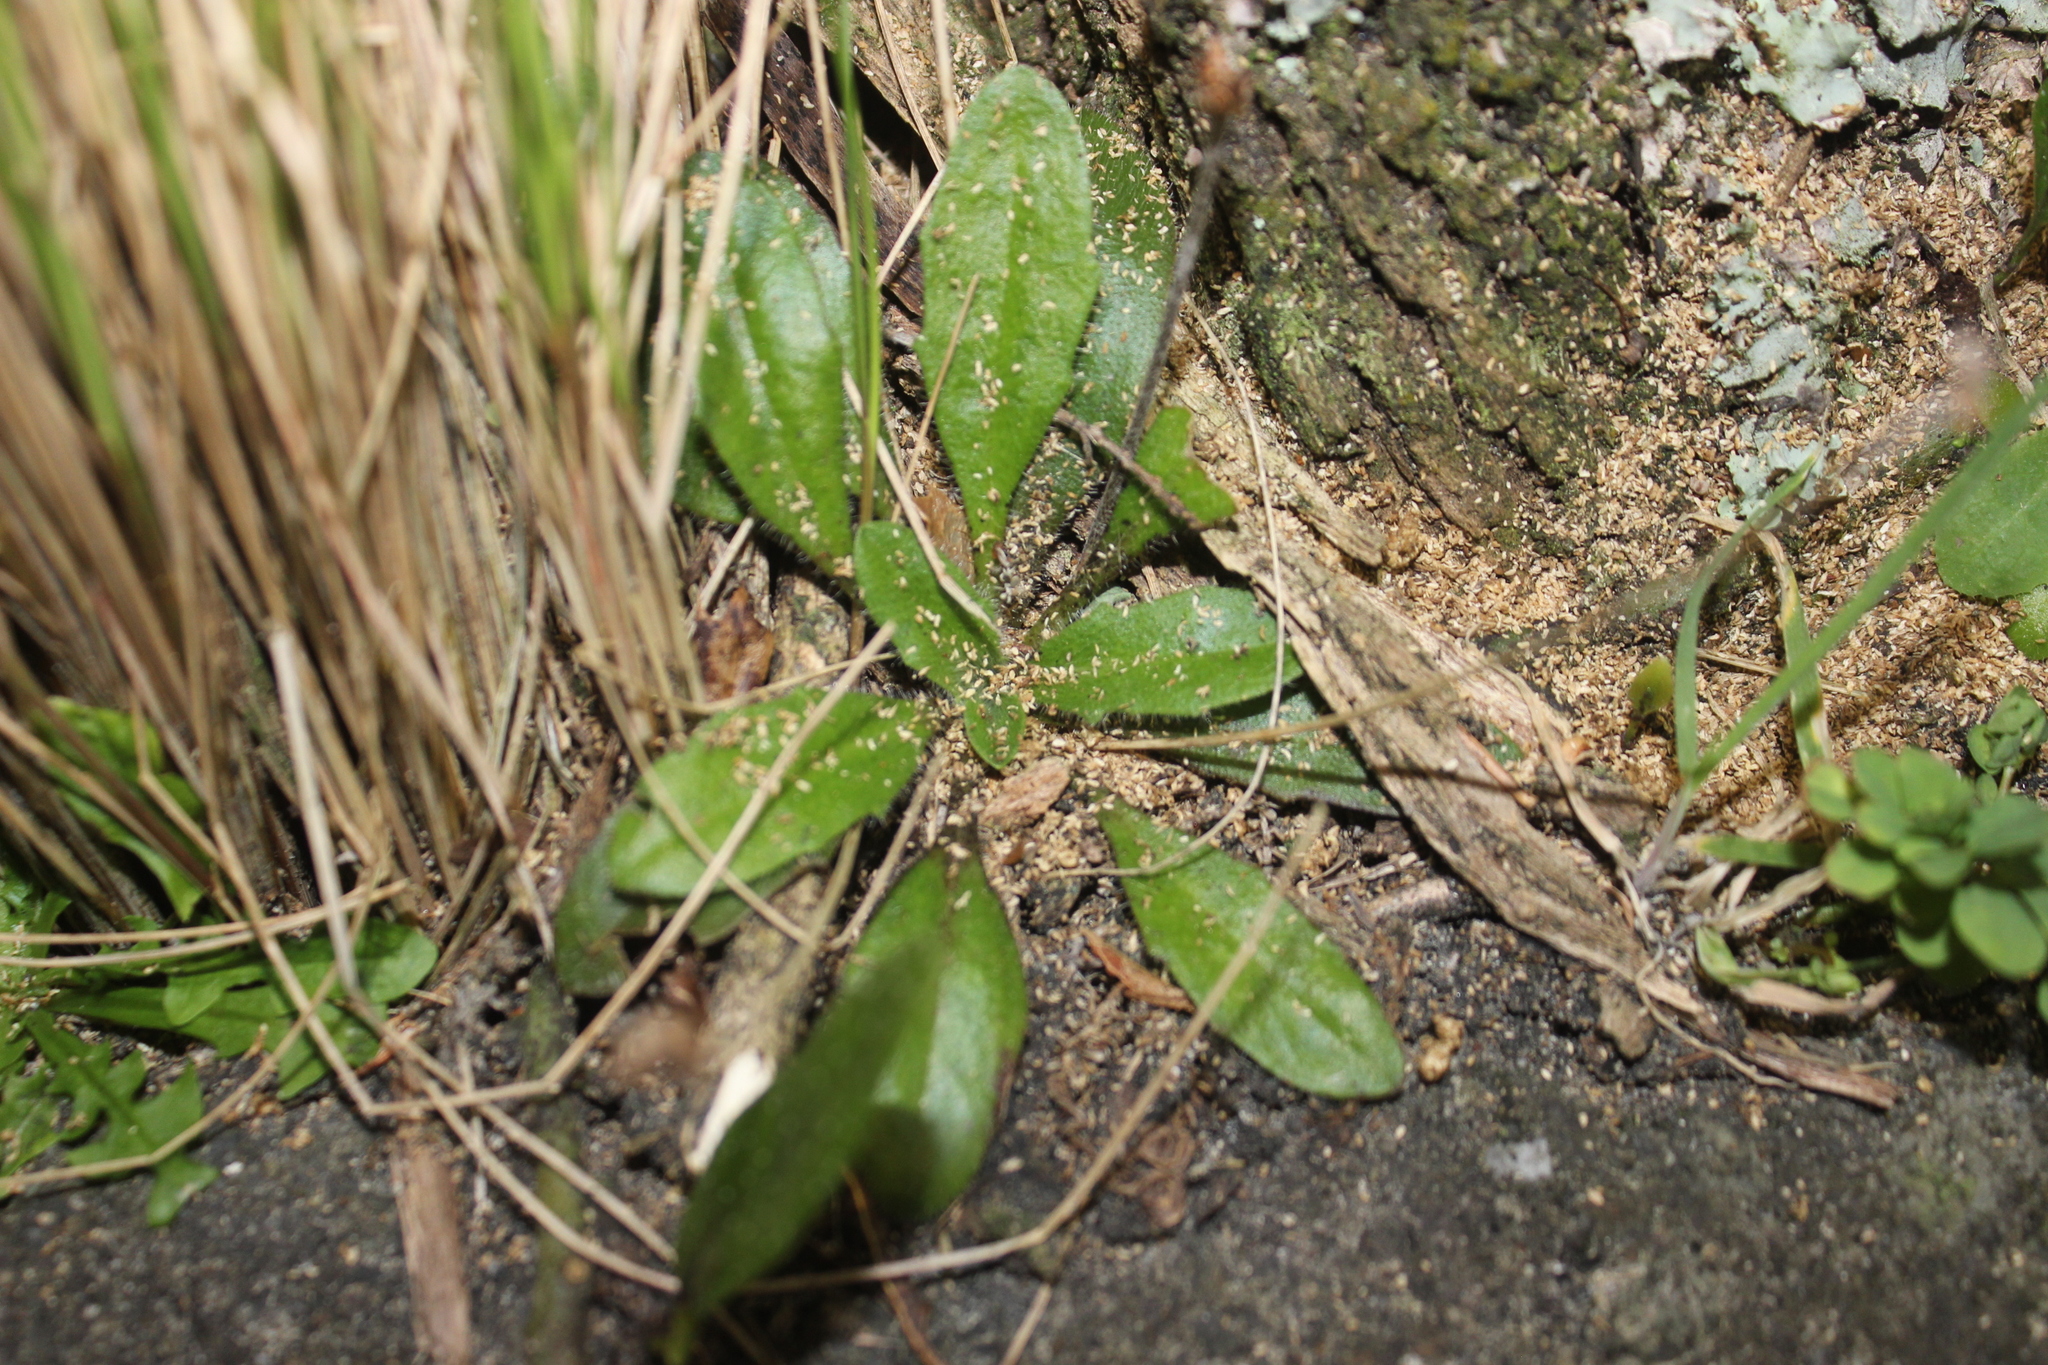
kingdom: Plantae
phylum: Tracheophyta
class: Magnoliopsida
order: Lamiales
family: Plantaginaceae
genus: Plantago
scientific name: Plantago raoulii
